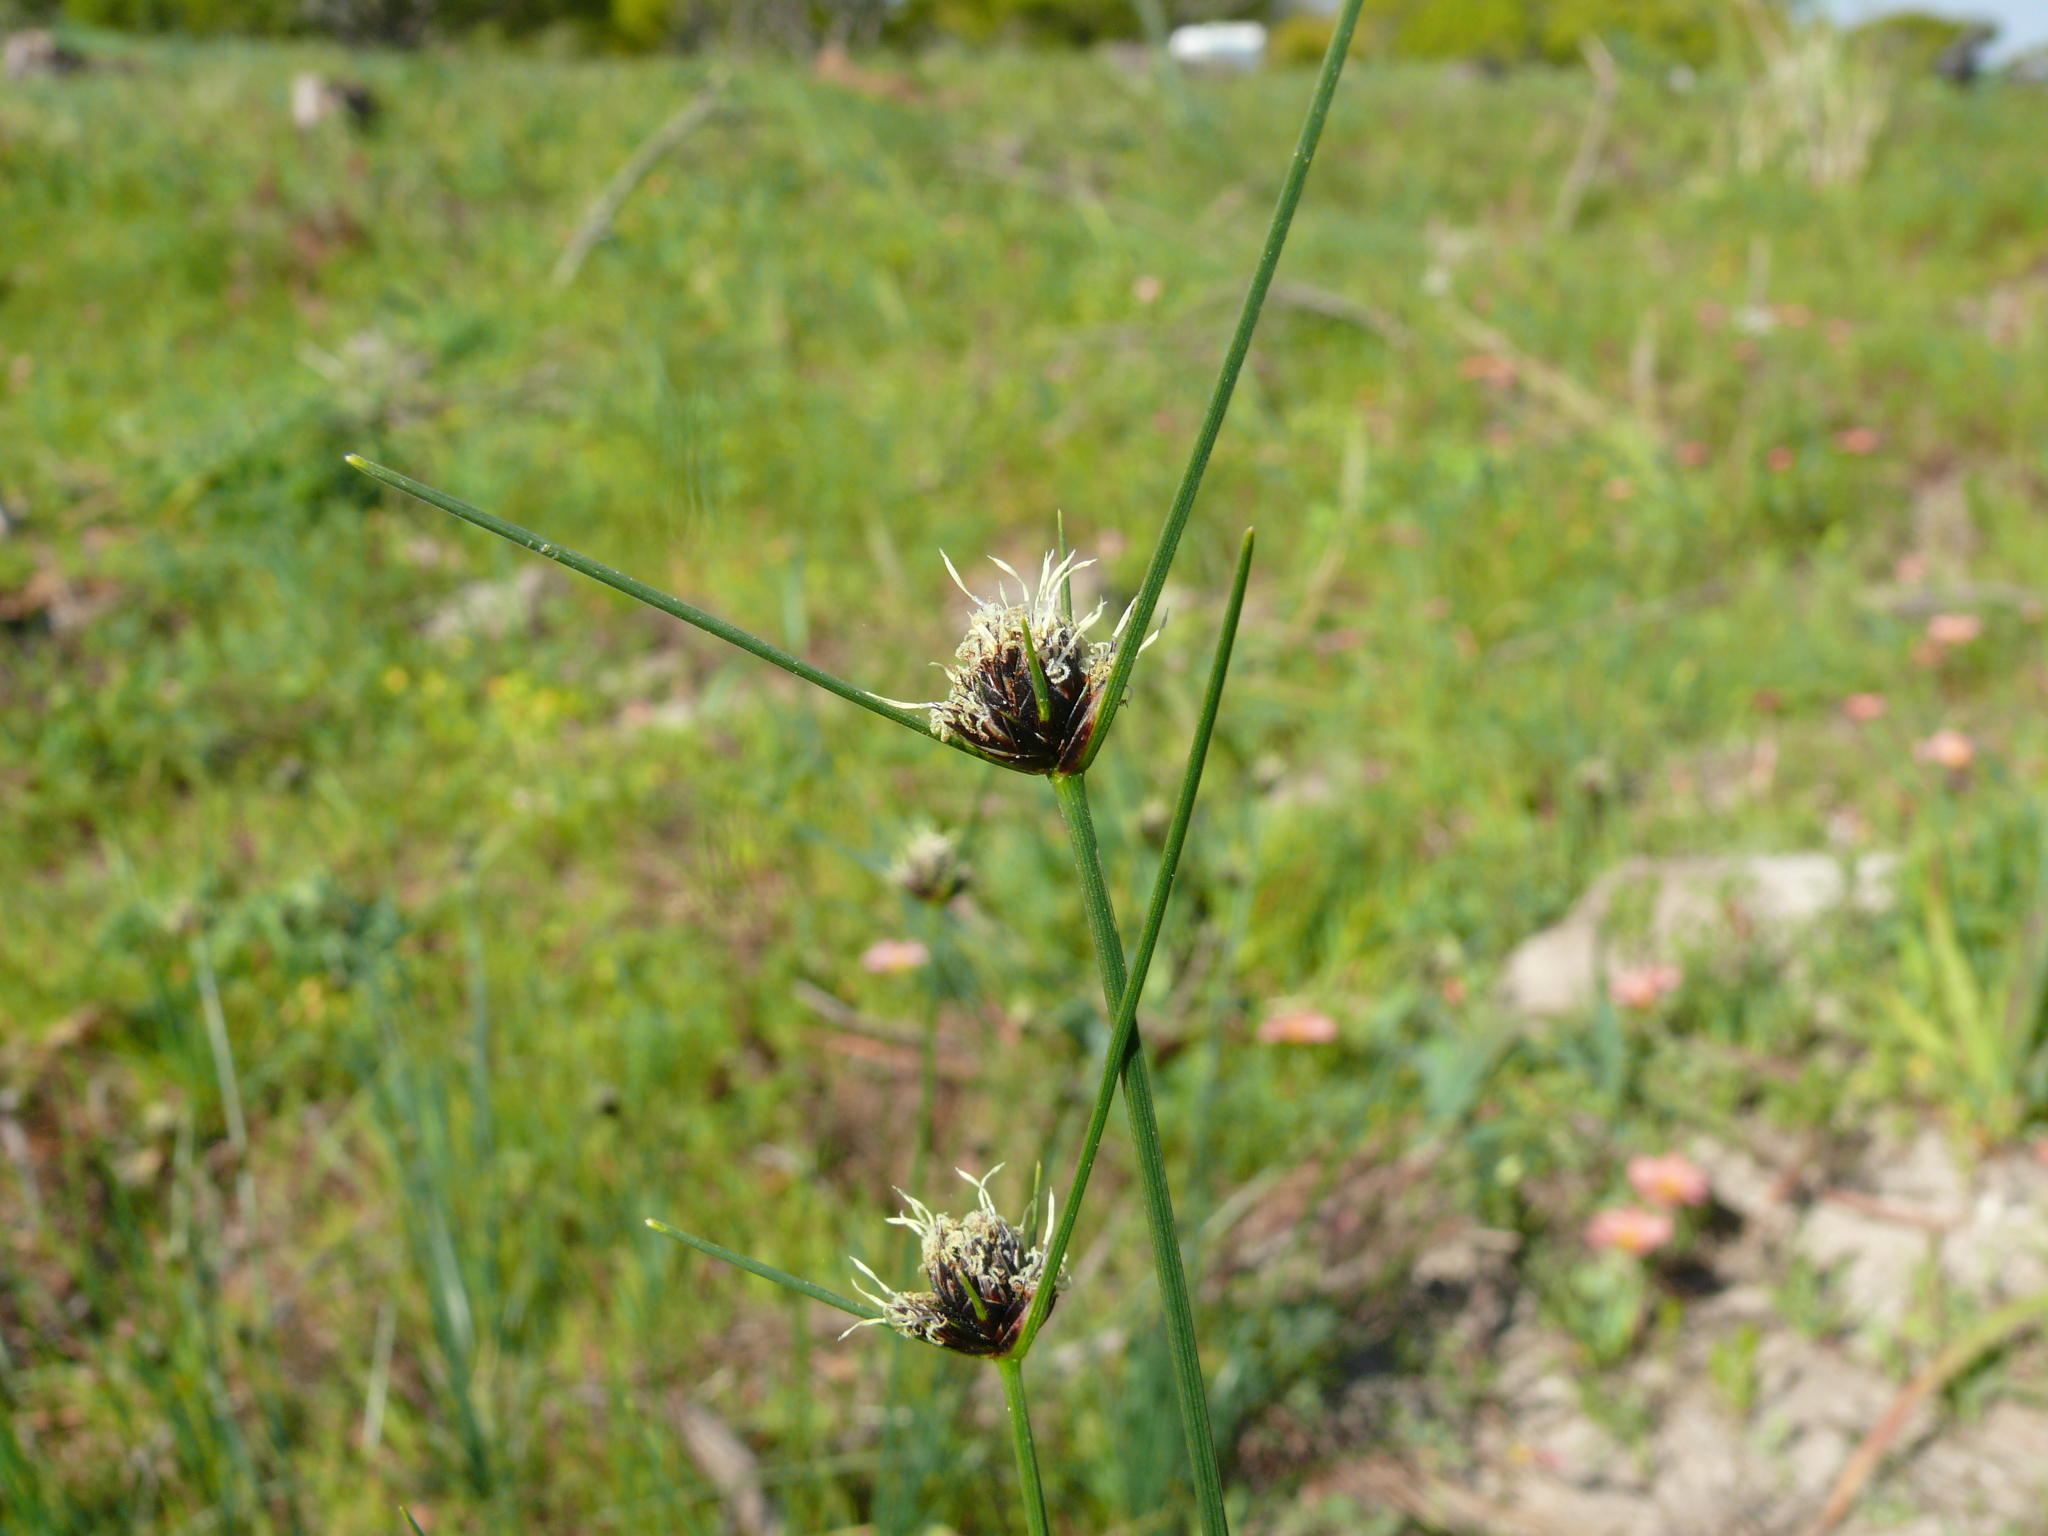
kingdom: Plantae
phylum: Tracheophyta
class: Liliopsida
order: Poales
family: Cyperaceae
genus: Ficinia
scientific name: Ficinia indica
